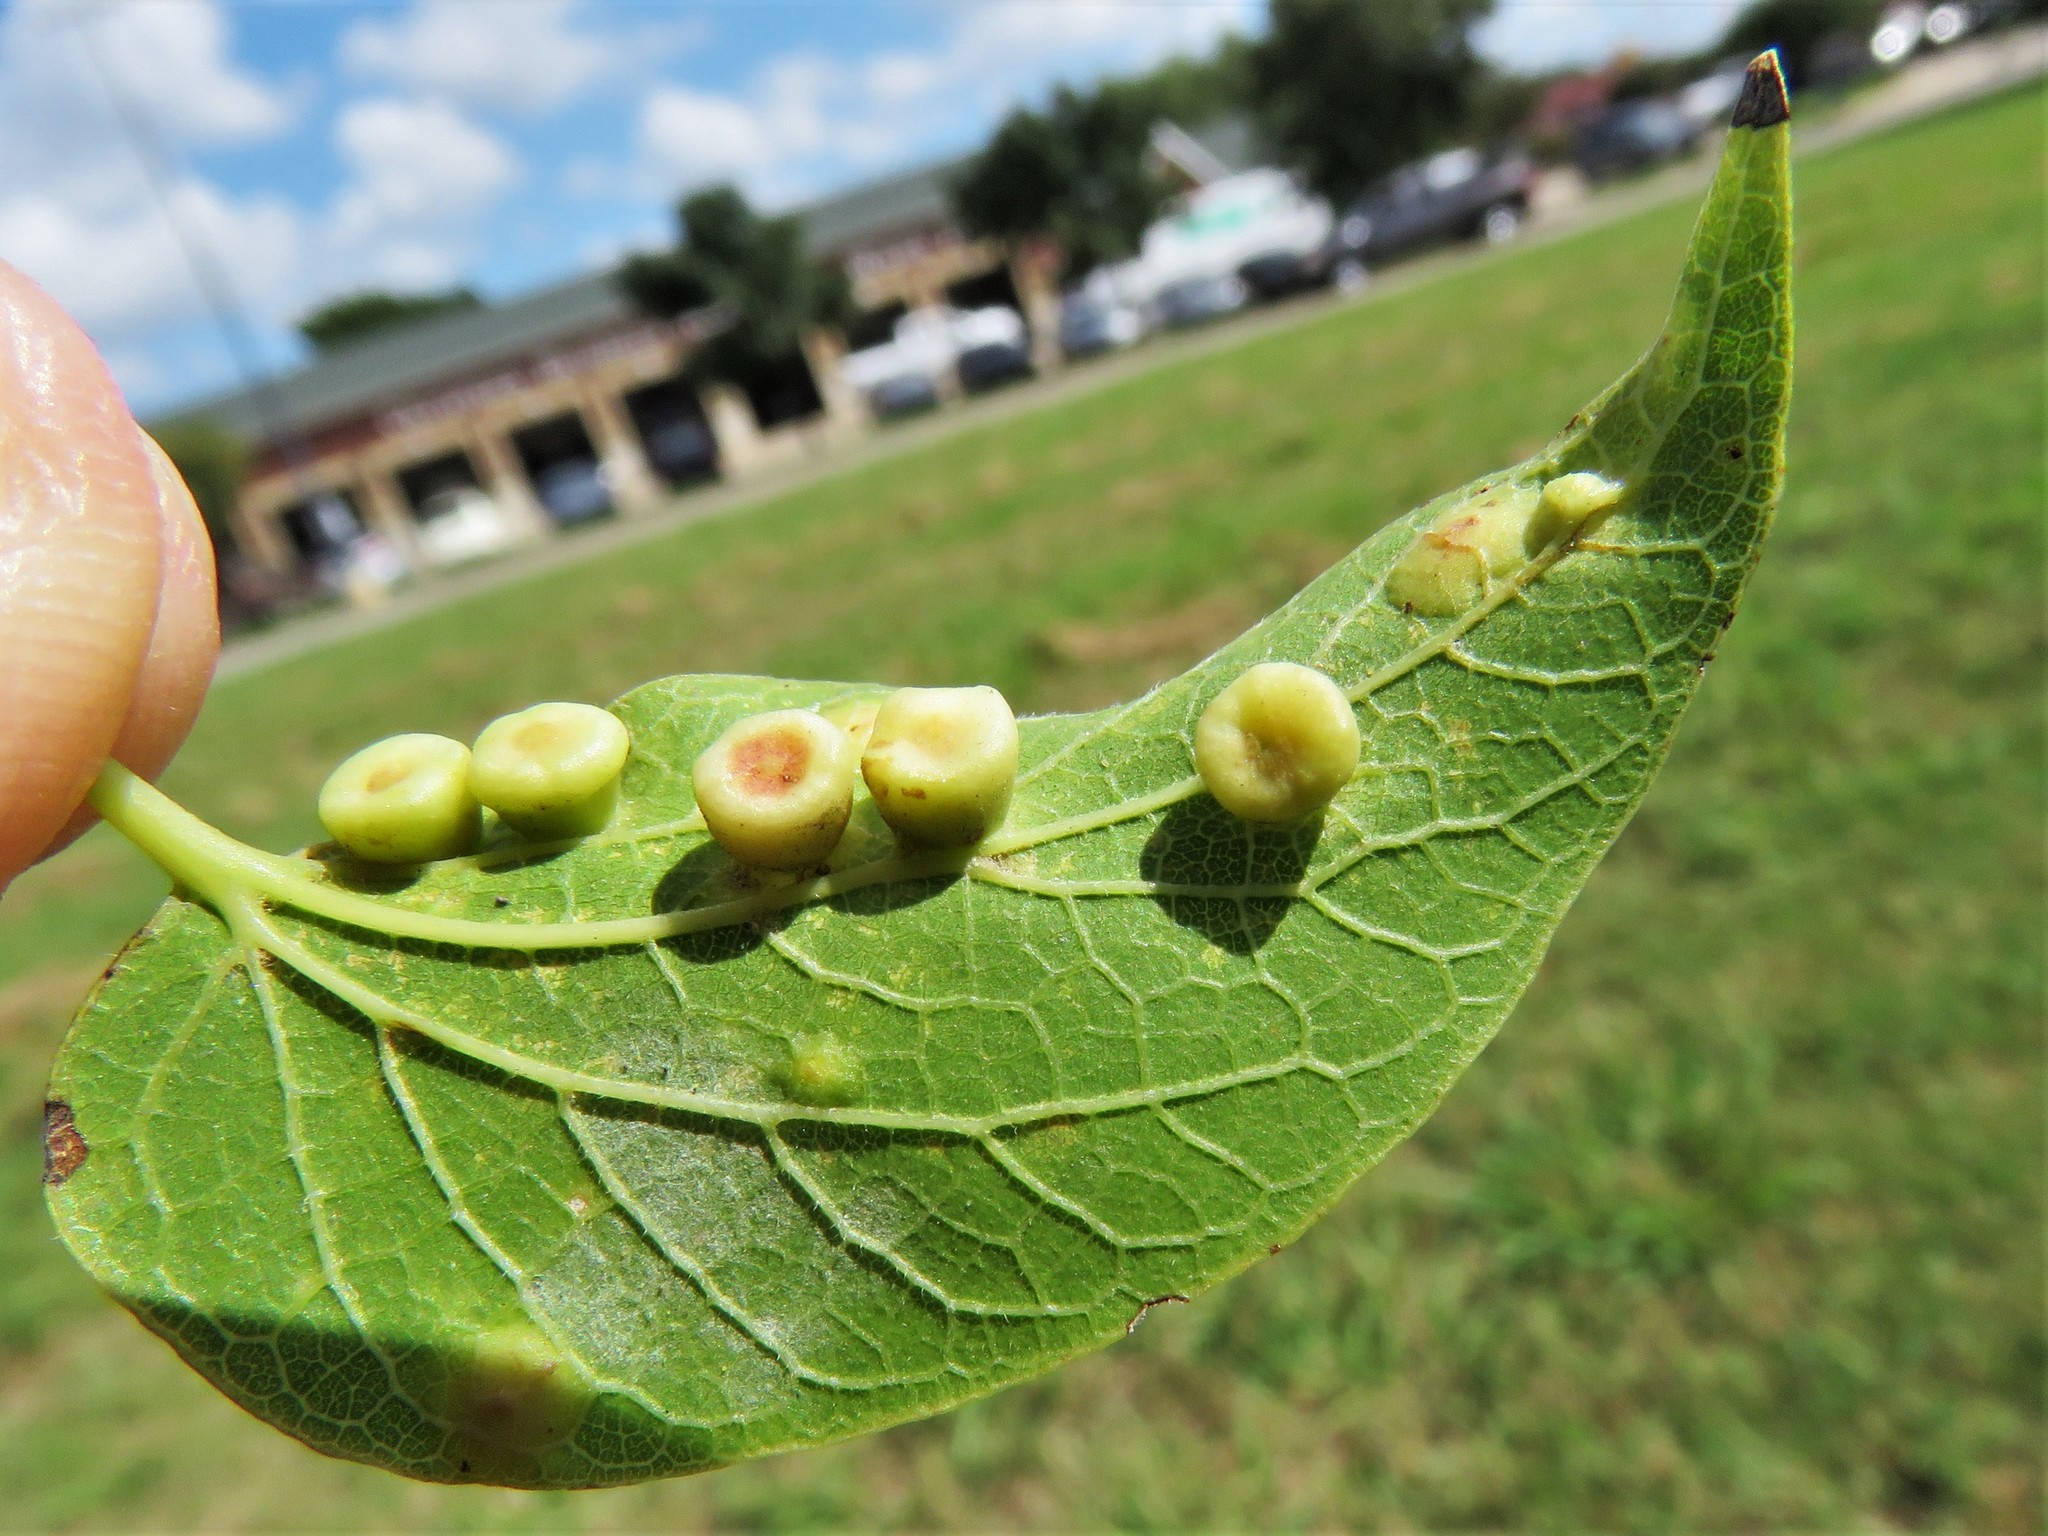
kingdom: Animalia
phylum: Arthropoda
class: Insecta
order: Hemiptera
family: Aphalaridae
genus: Pachypsylla
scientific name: Pachypsylla celtidismamma
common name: Hackberry nipplegall psyllid
